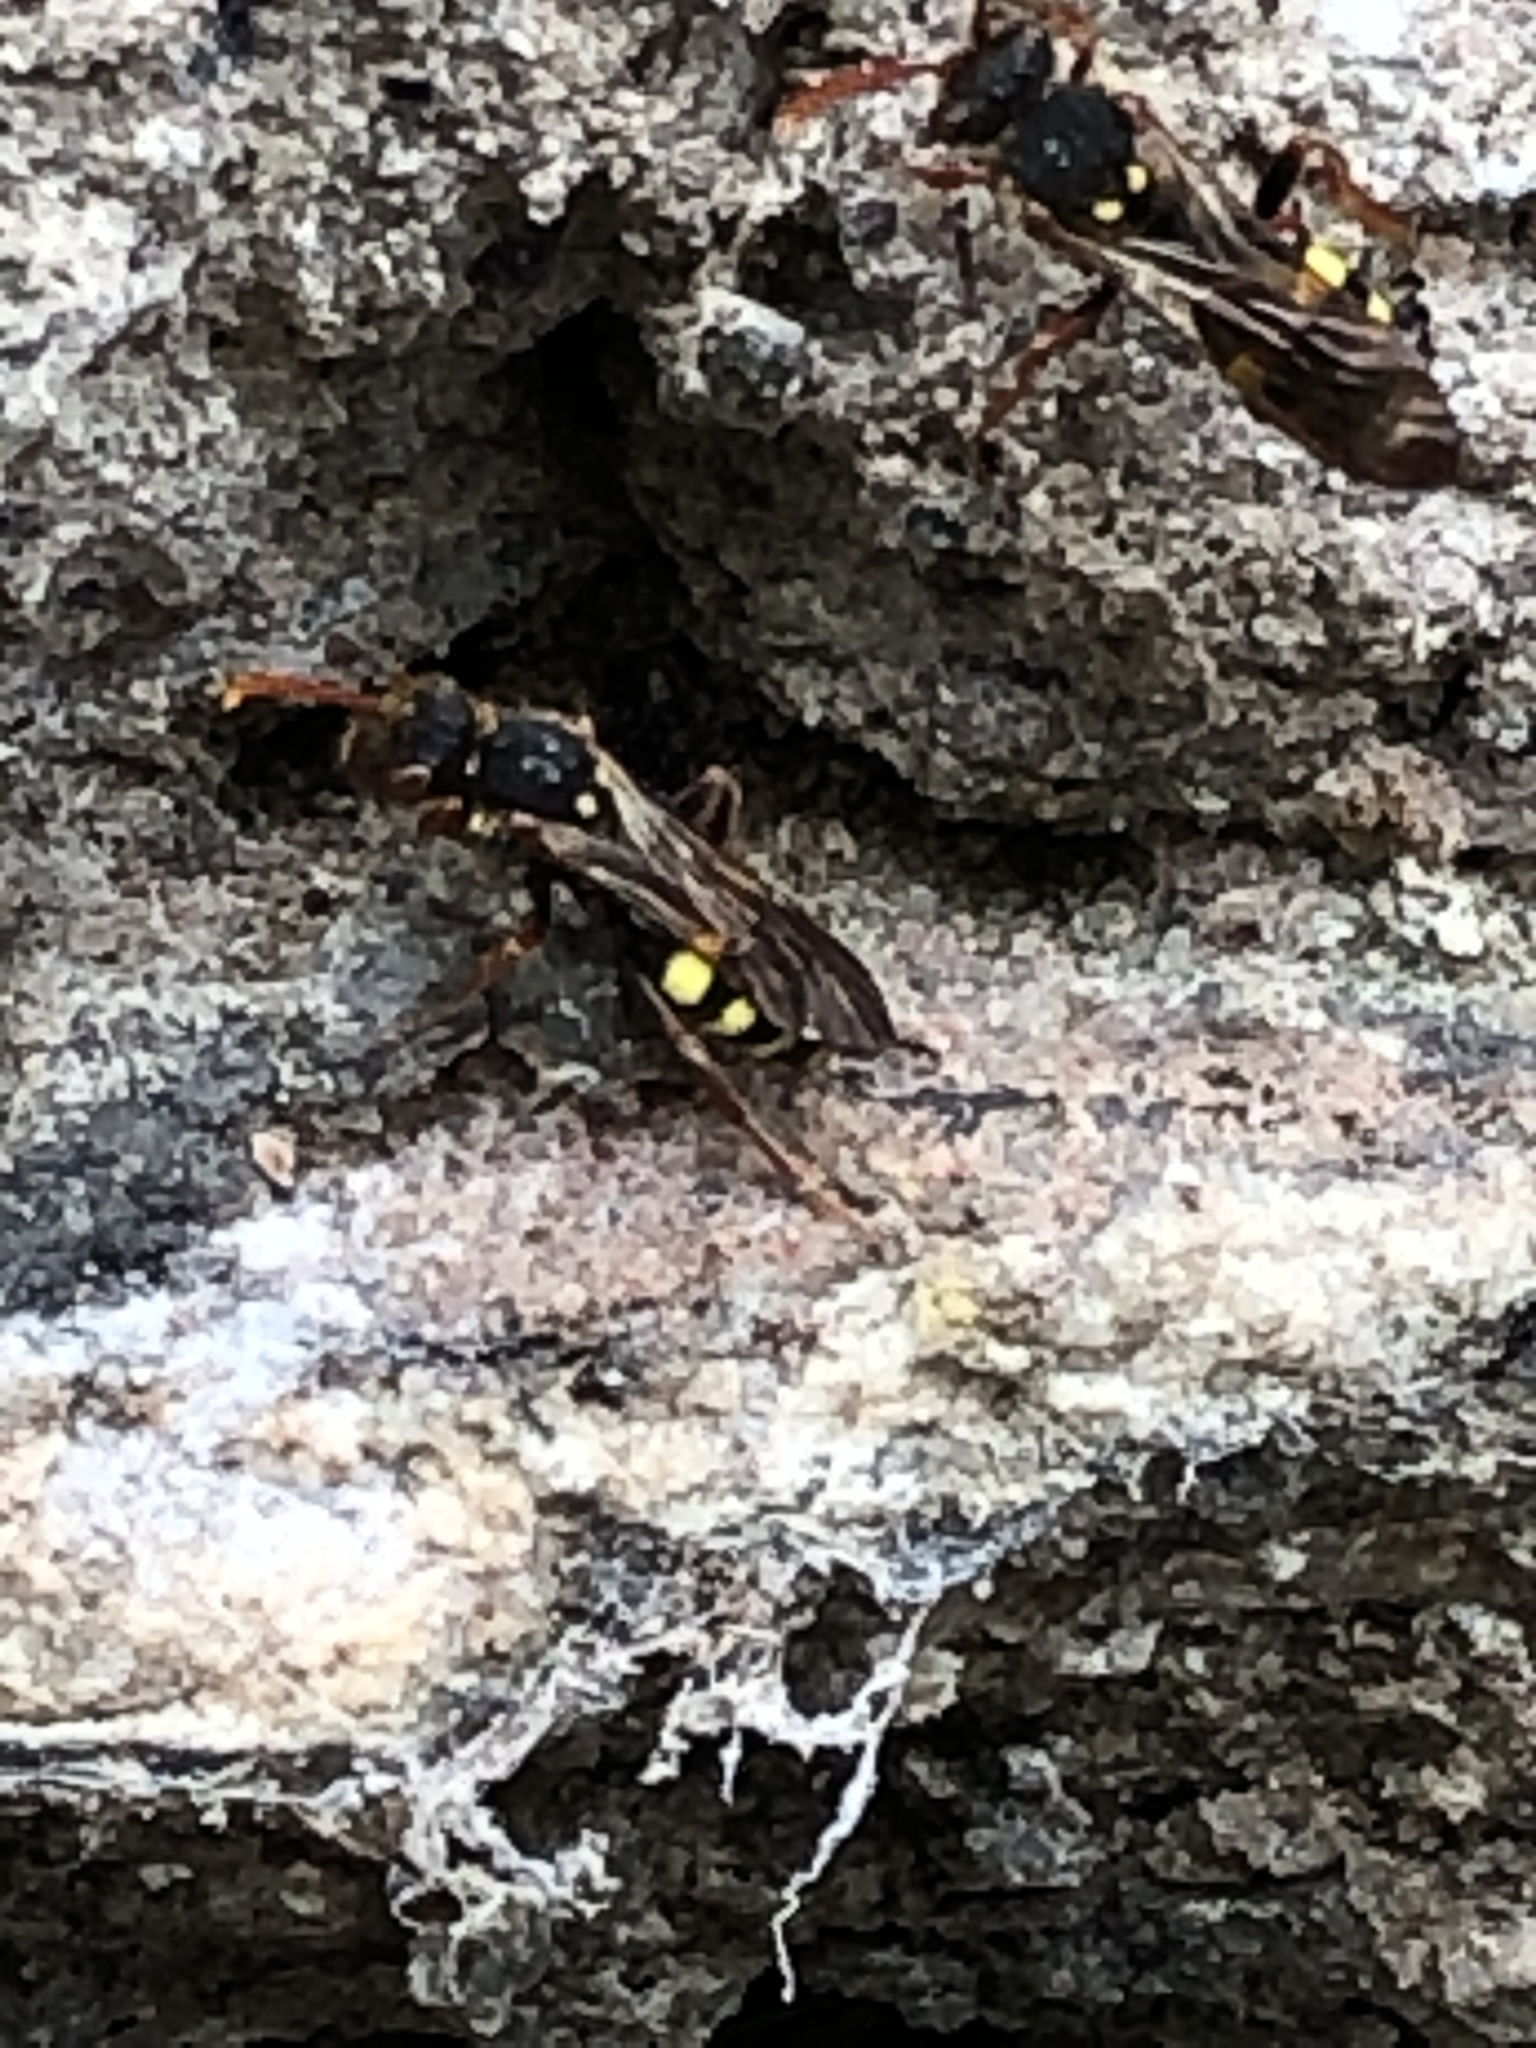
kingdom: Animalia
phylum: Arthropoda
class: Insecta
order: Hymenoptera
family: Apidae
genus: Nomada
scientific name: Nomada marshamella
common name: Marsham's nomad bee
